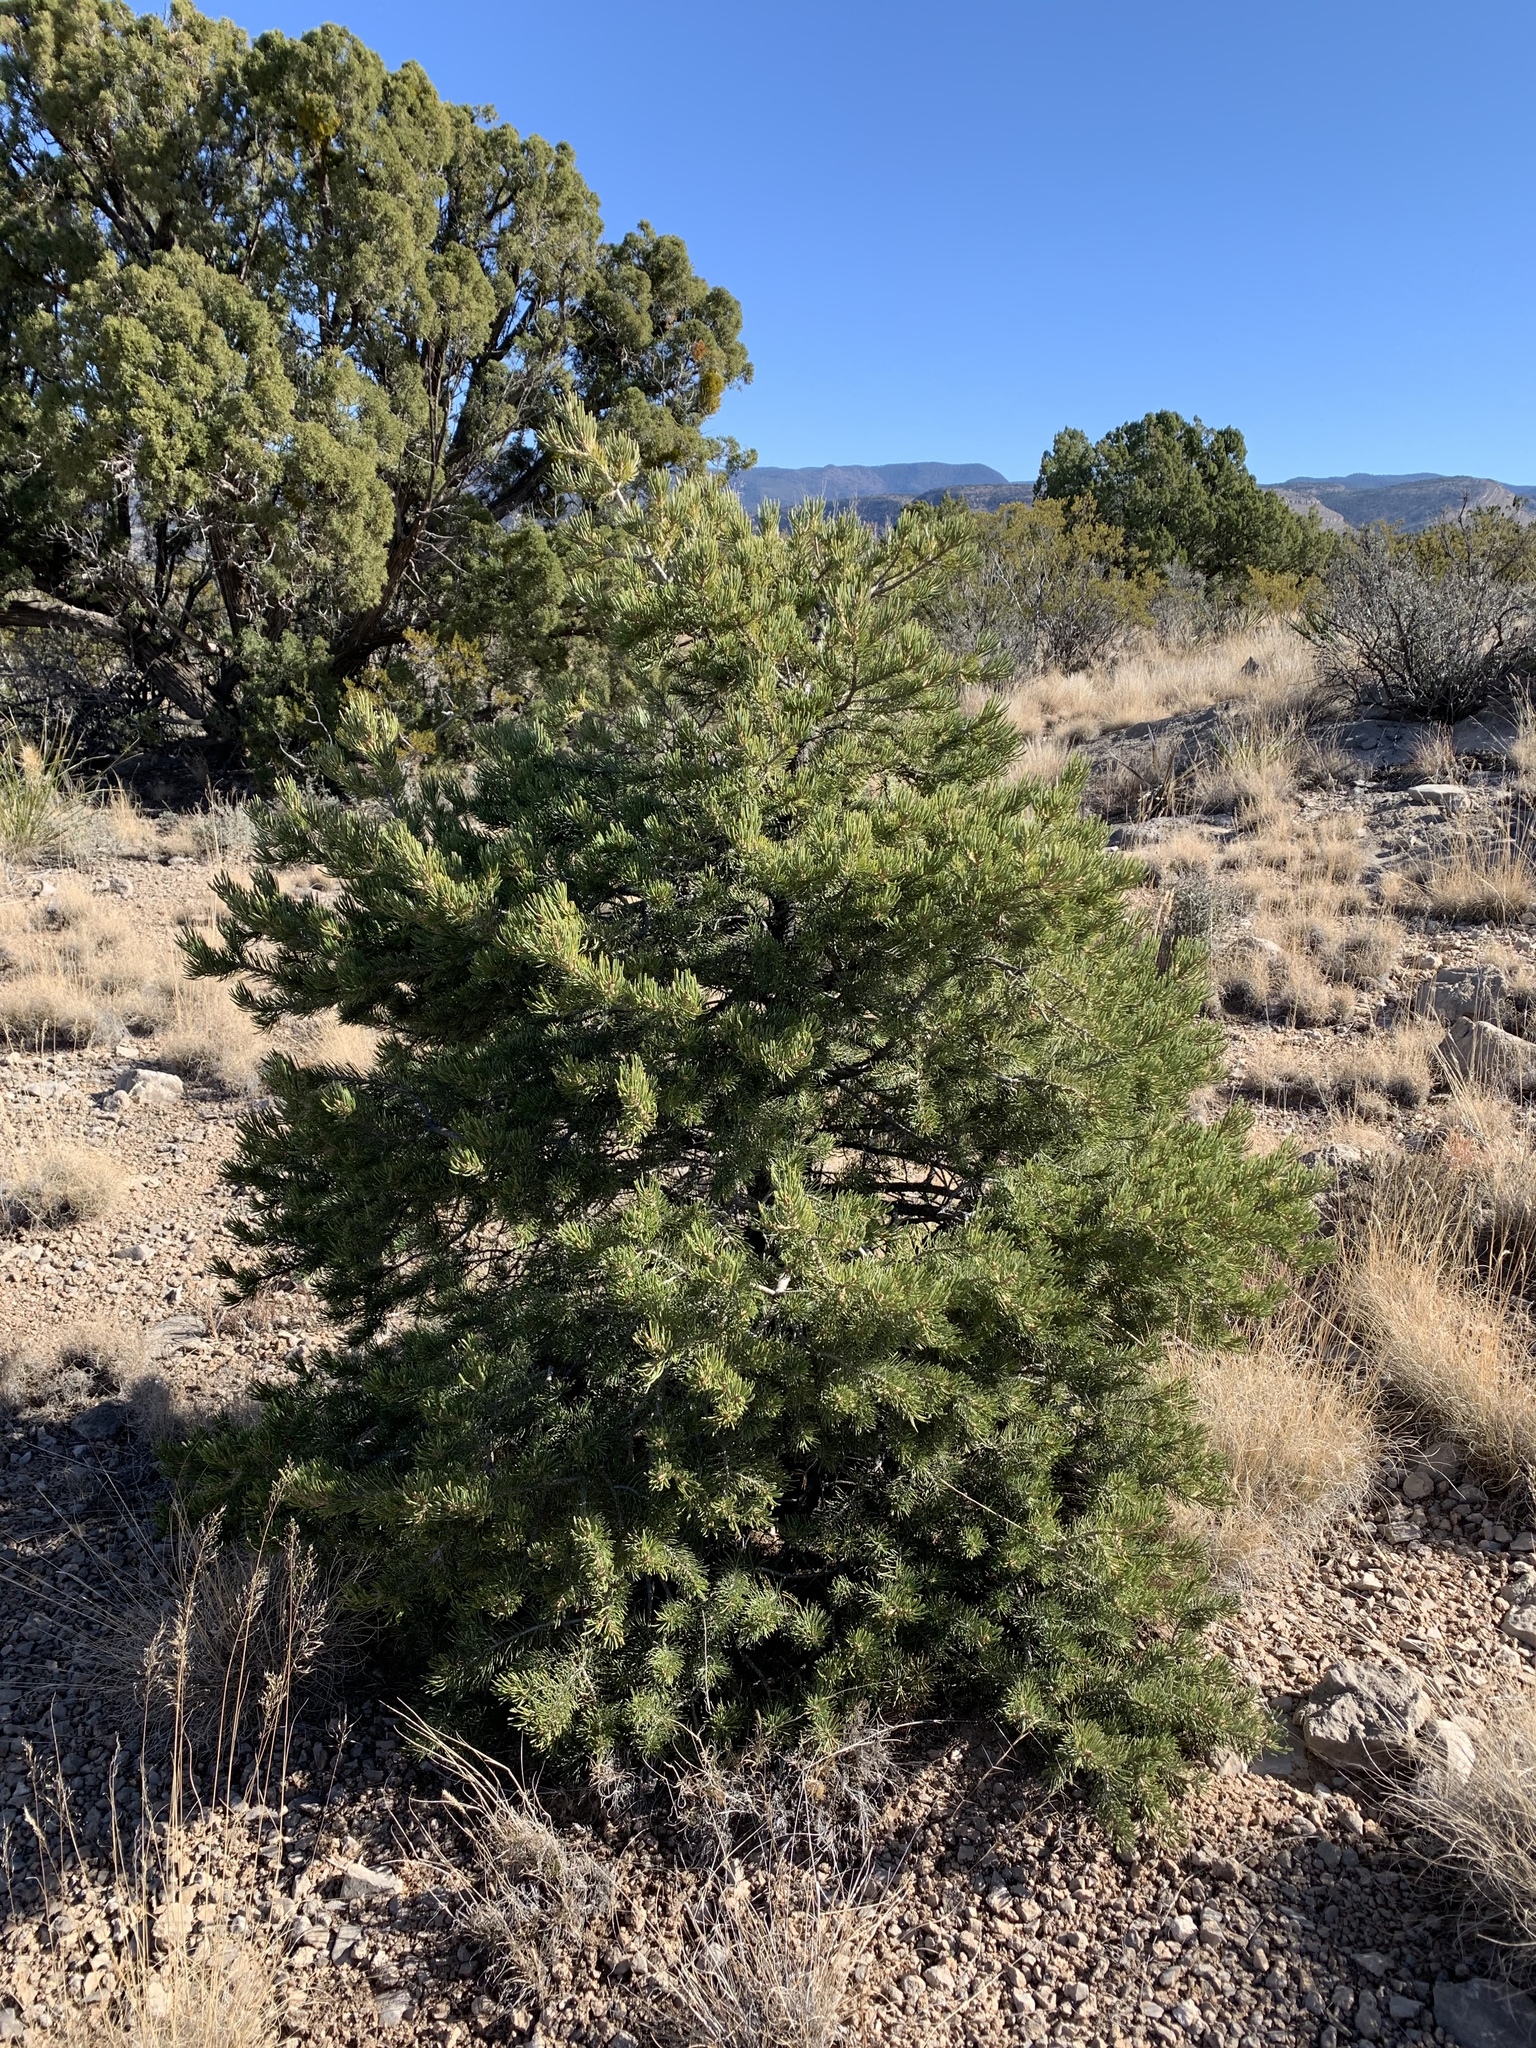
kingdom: Plantae
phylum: Tracheophyta
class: Pinopsida
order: Pinales
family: Pinaceae
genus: Pinus
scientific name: Pinus edulis
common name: Colorado pinyon
